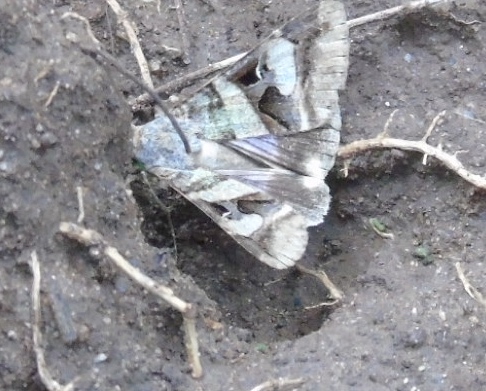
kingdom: Animalia
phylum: Arthropoda
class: Insecta
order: Lepidoptera
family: Erebidae
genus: Melipotis
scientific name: Melipotis perpendicularis
